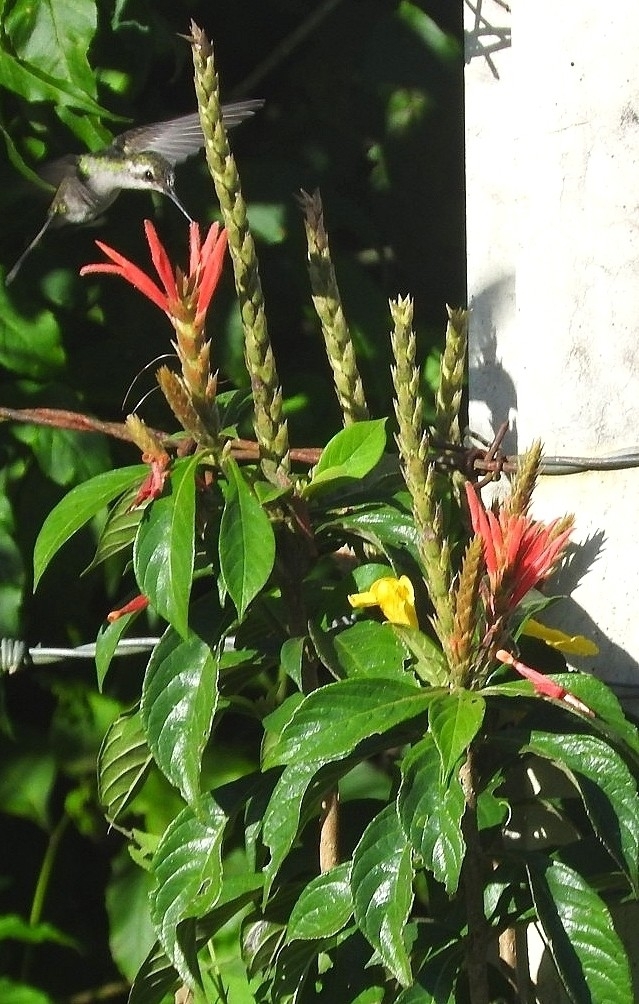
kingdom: Plantae
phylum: Tracheophyta
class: Magnoliopsida
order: Lamiales
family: Acanthaceae
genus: Aphelandra
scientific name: Aphelandra scabra
